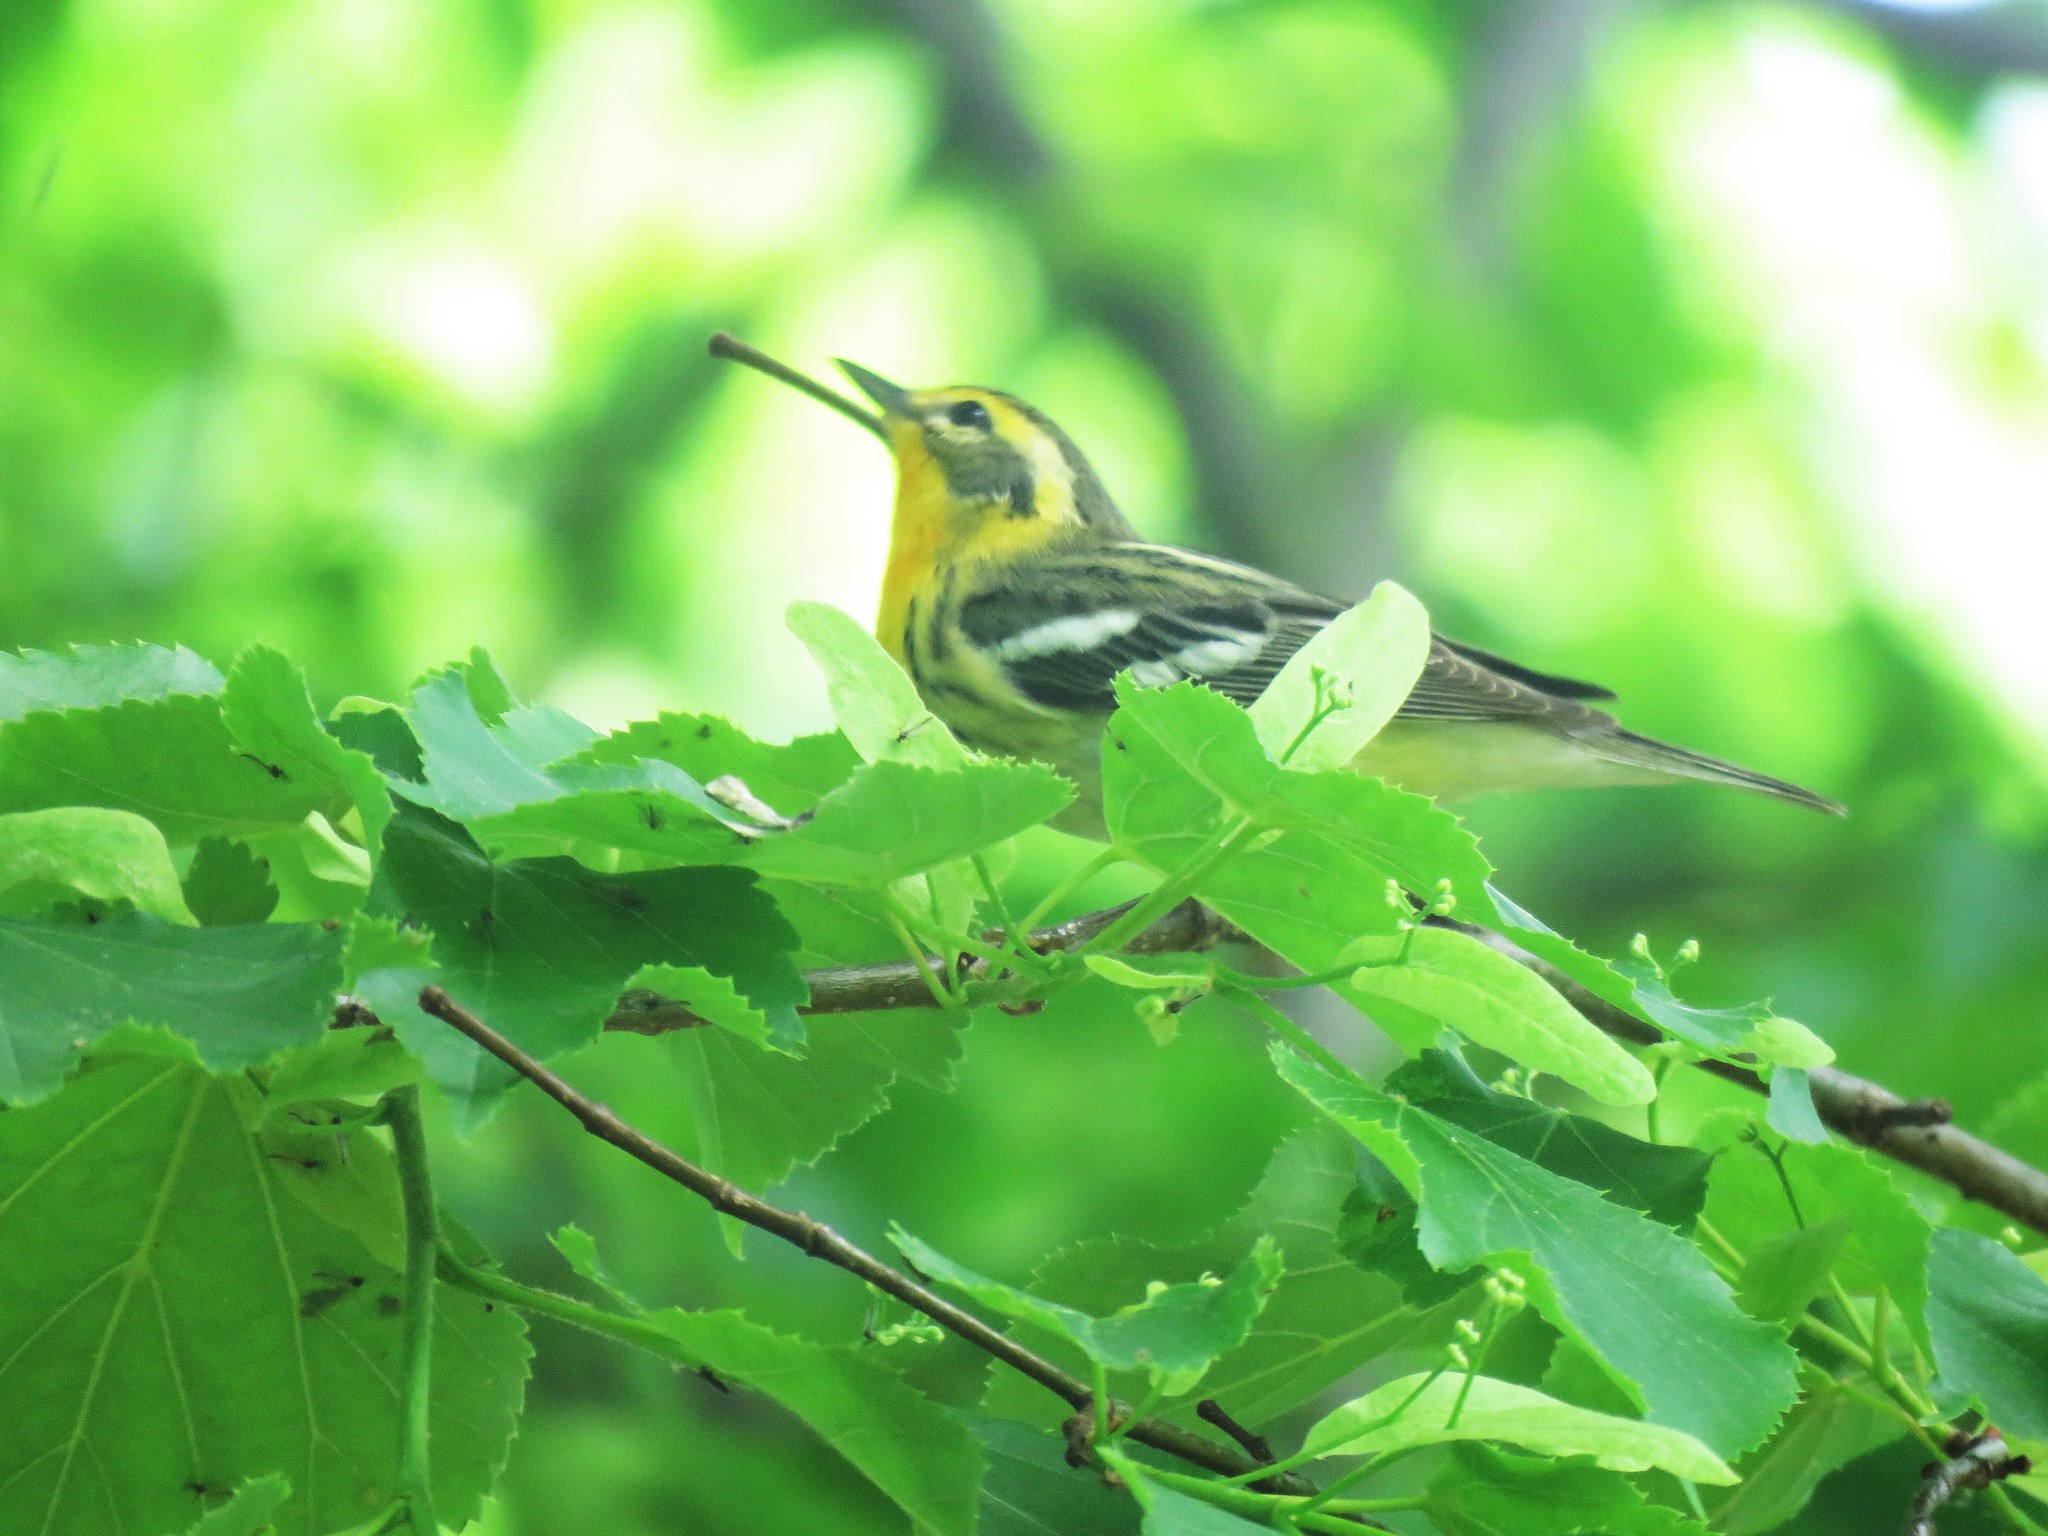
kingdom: Animalia
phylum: Chordata
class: Aves
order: Passeriformes
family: Parulidae
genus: Setophaga
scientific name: Setophaga fusca
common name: Blackburnian warbler
